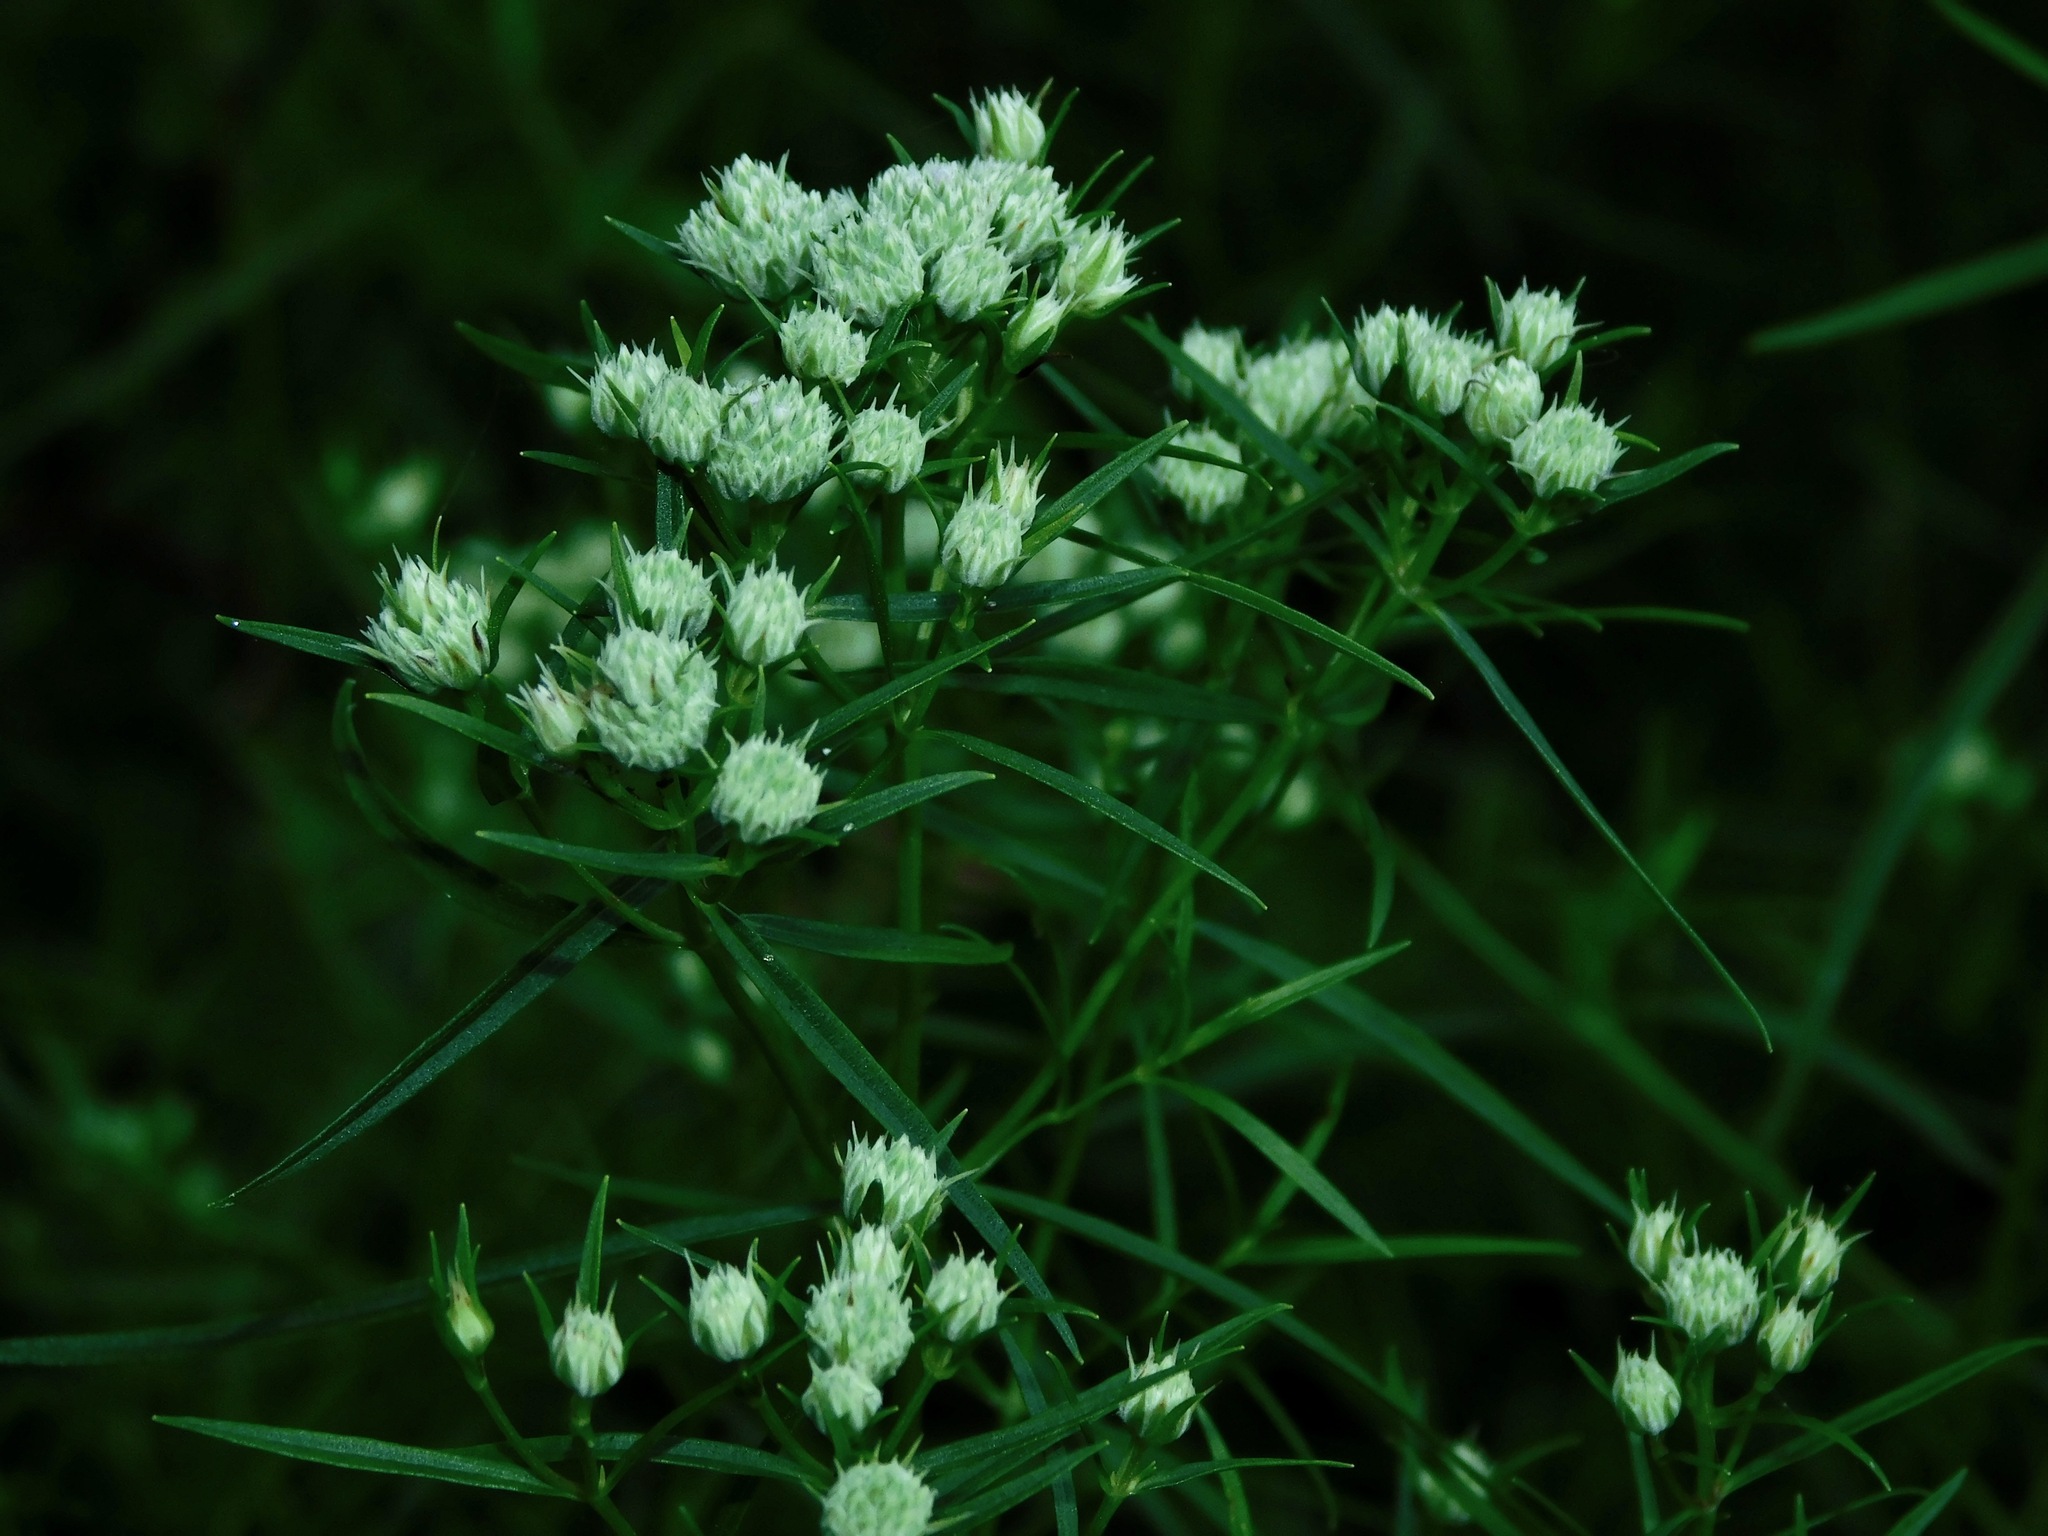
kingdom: Plantae
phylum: Tracheophyta
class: Magnoliopsida
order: Lamiales
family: Lamiaceae
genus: Pycnanthemum
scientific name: Pycnanthemum tenuifolium
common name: Narrow-leaf mountain-mint
